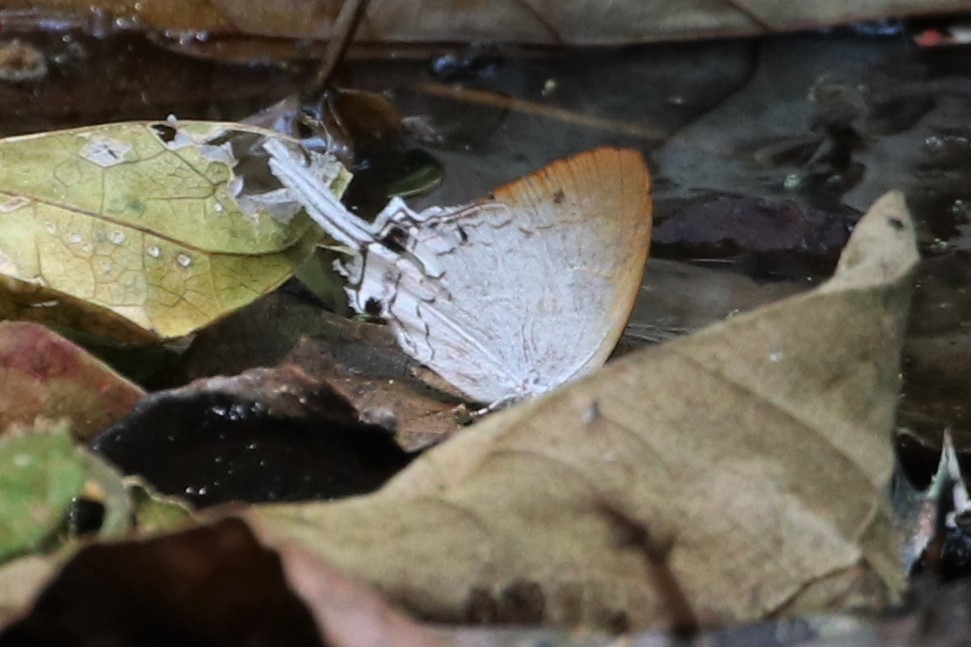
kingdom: Animalia
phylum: Arthropoda
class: Insecta
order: Lepidoptera
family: Lycaenidae
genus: Cheritra
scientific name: Cheritra freja
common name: Common imperial
